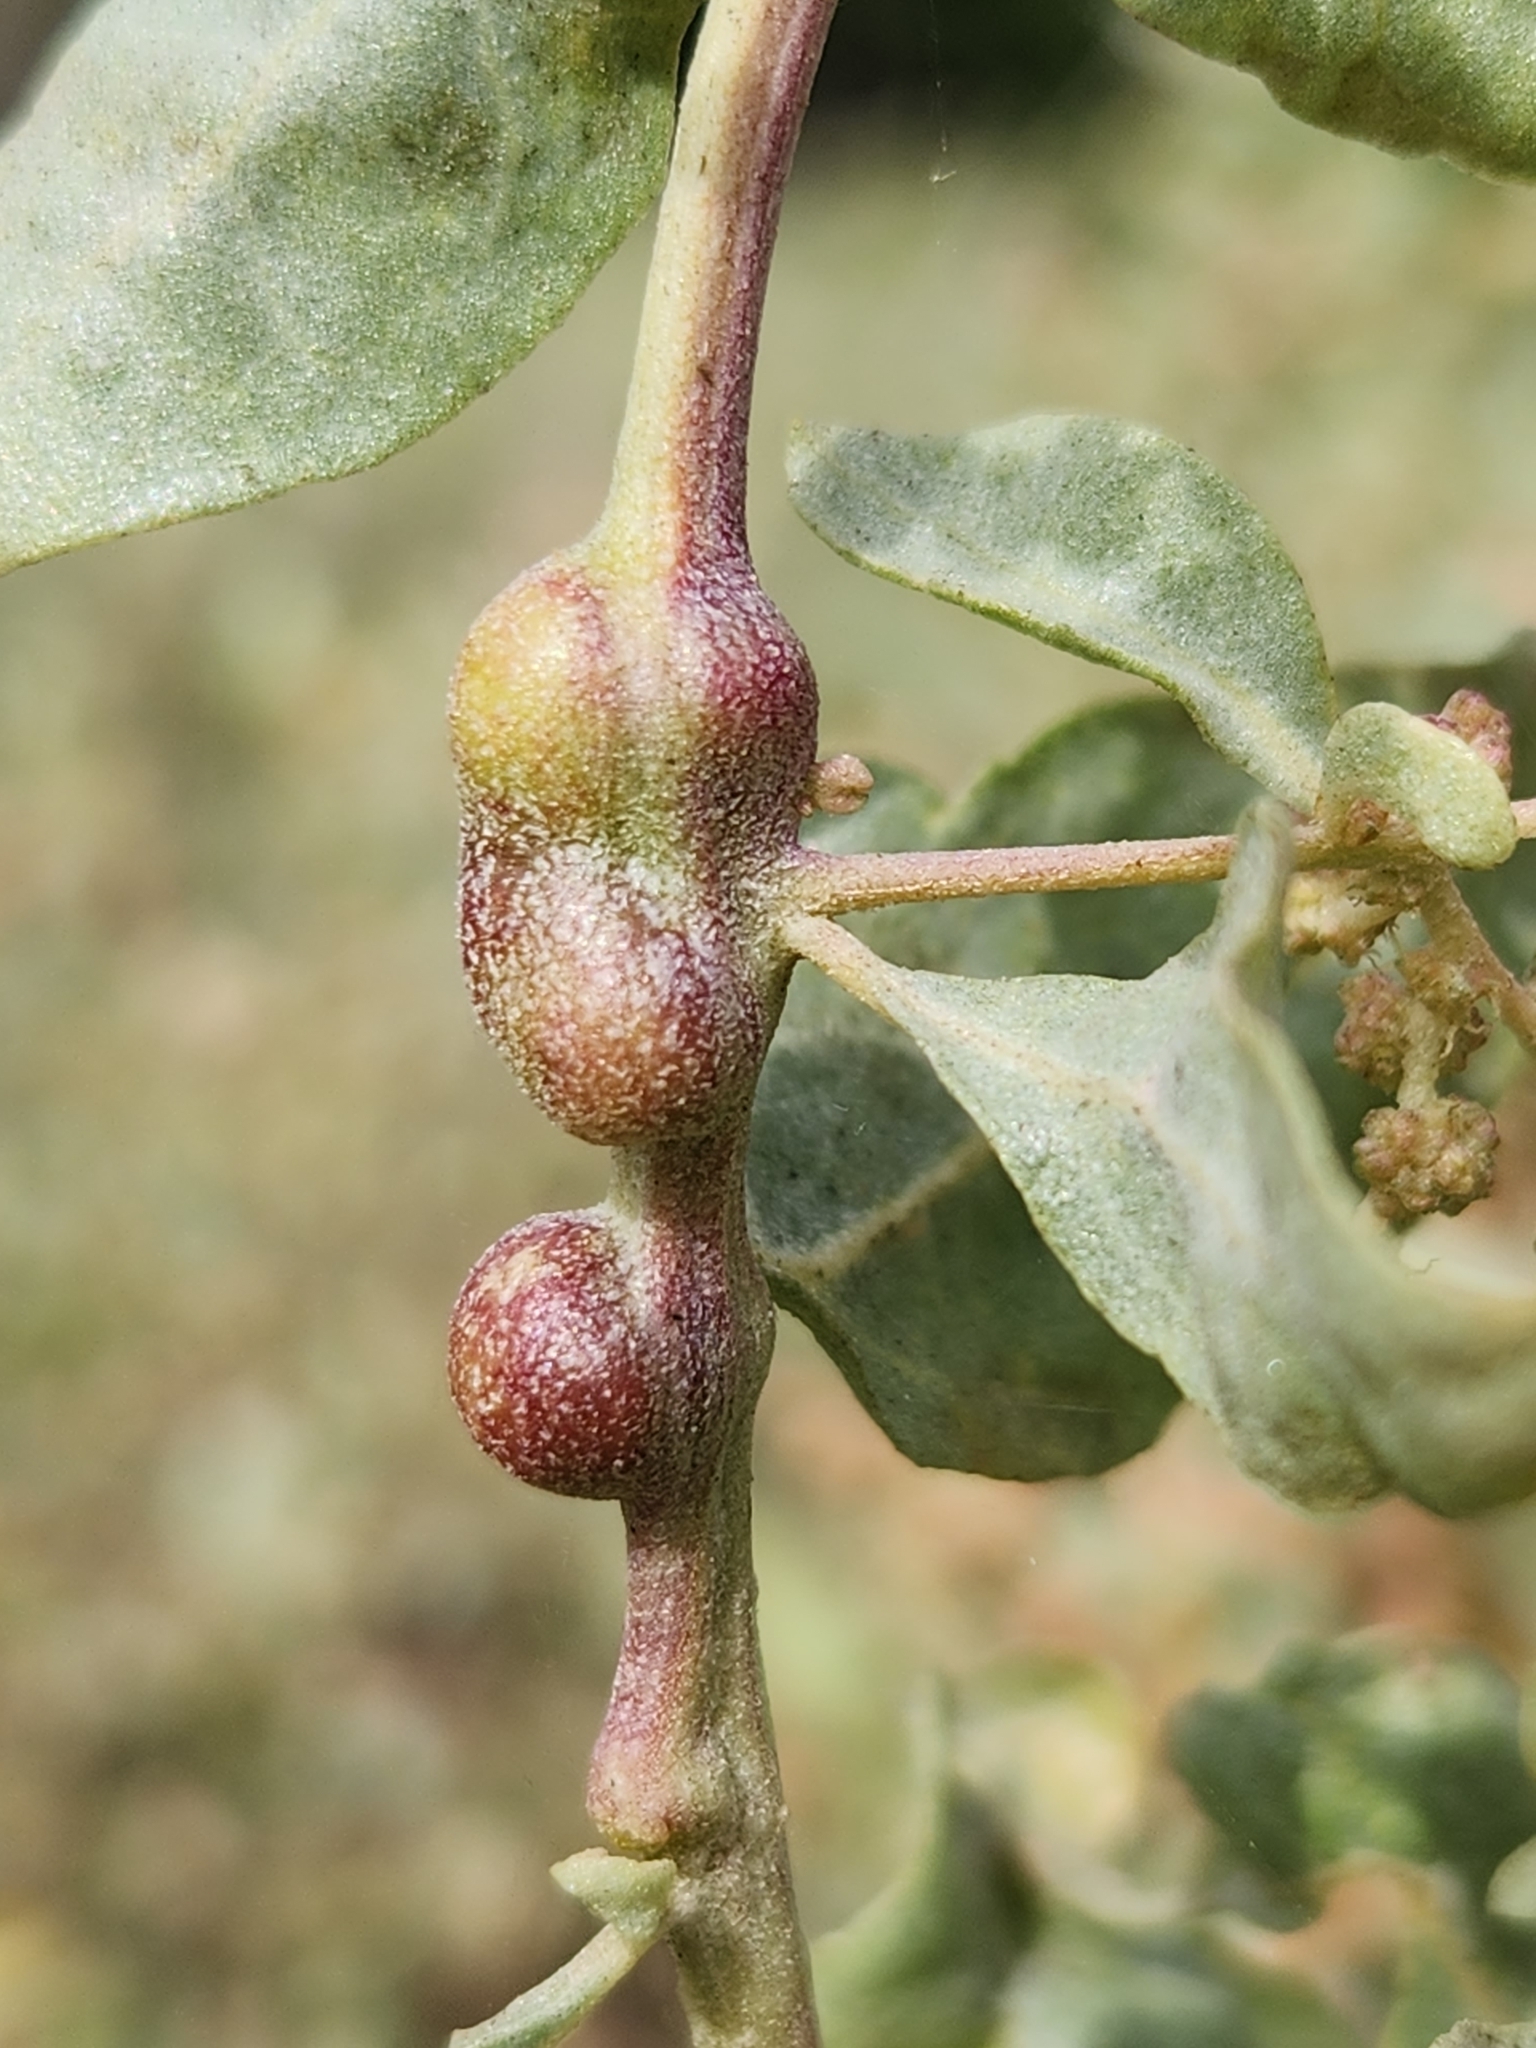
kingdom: Animalia
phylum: Arthropoda
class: Insecta
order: Diptera
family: Cecidomyiidae
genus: Asphondylia
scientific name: Asphondylia atriplicis
